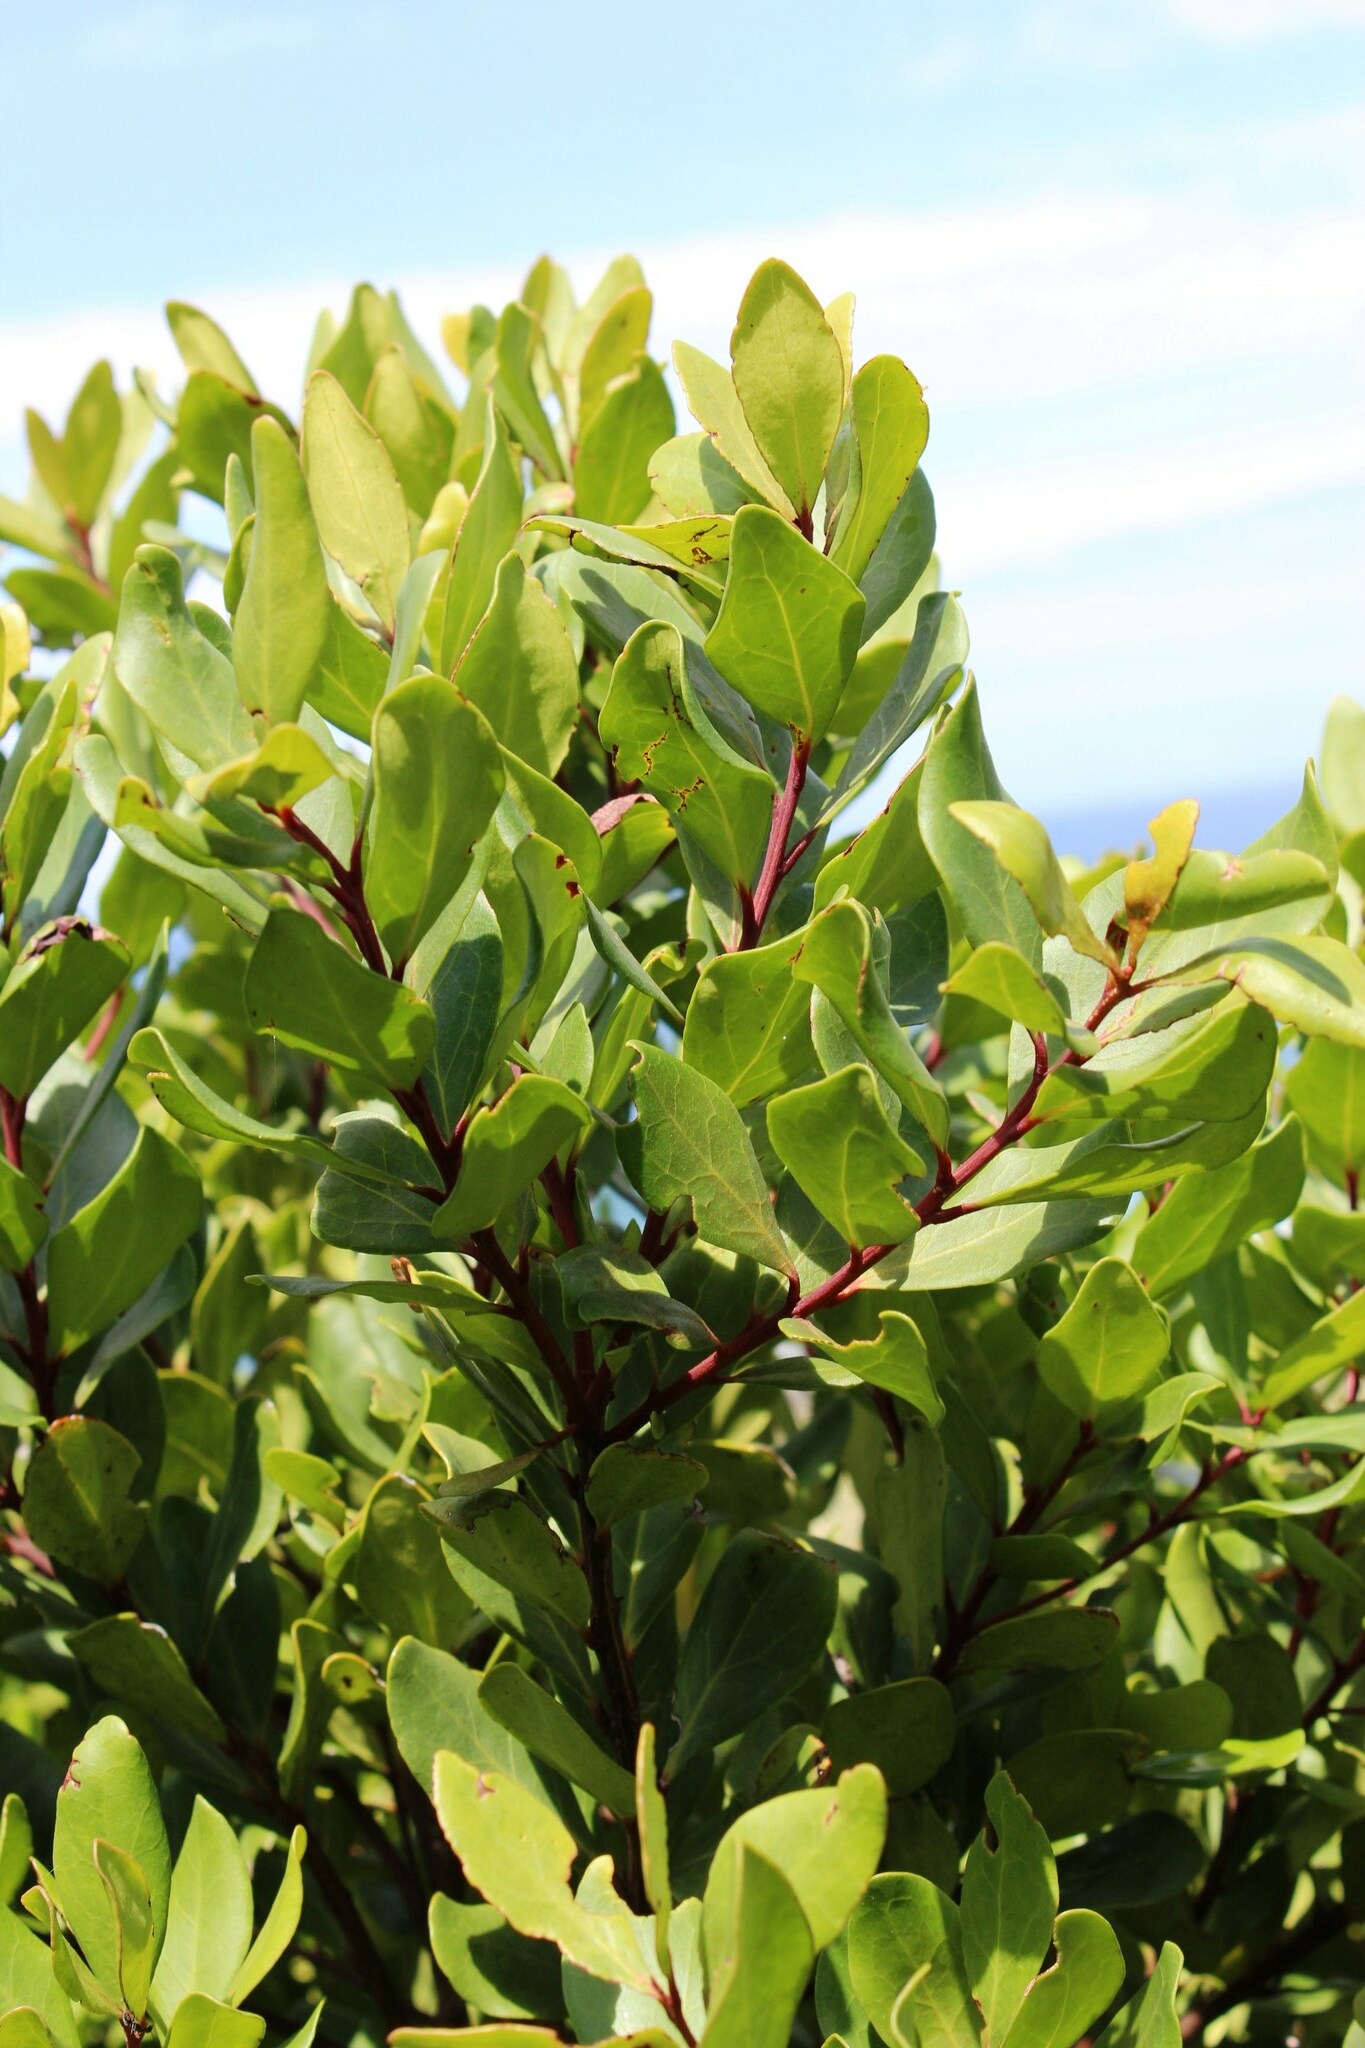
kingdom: Plantae
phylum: Tracheophyta
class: Magnoliopsida
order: Ericales
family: Ebenaceae
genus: Euclea
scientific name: Euclea racemosa
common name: Dune guarri
